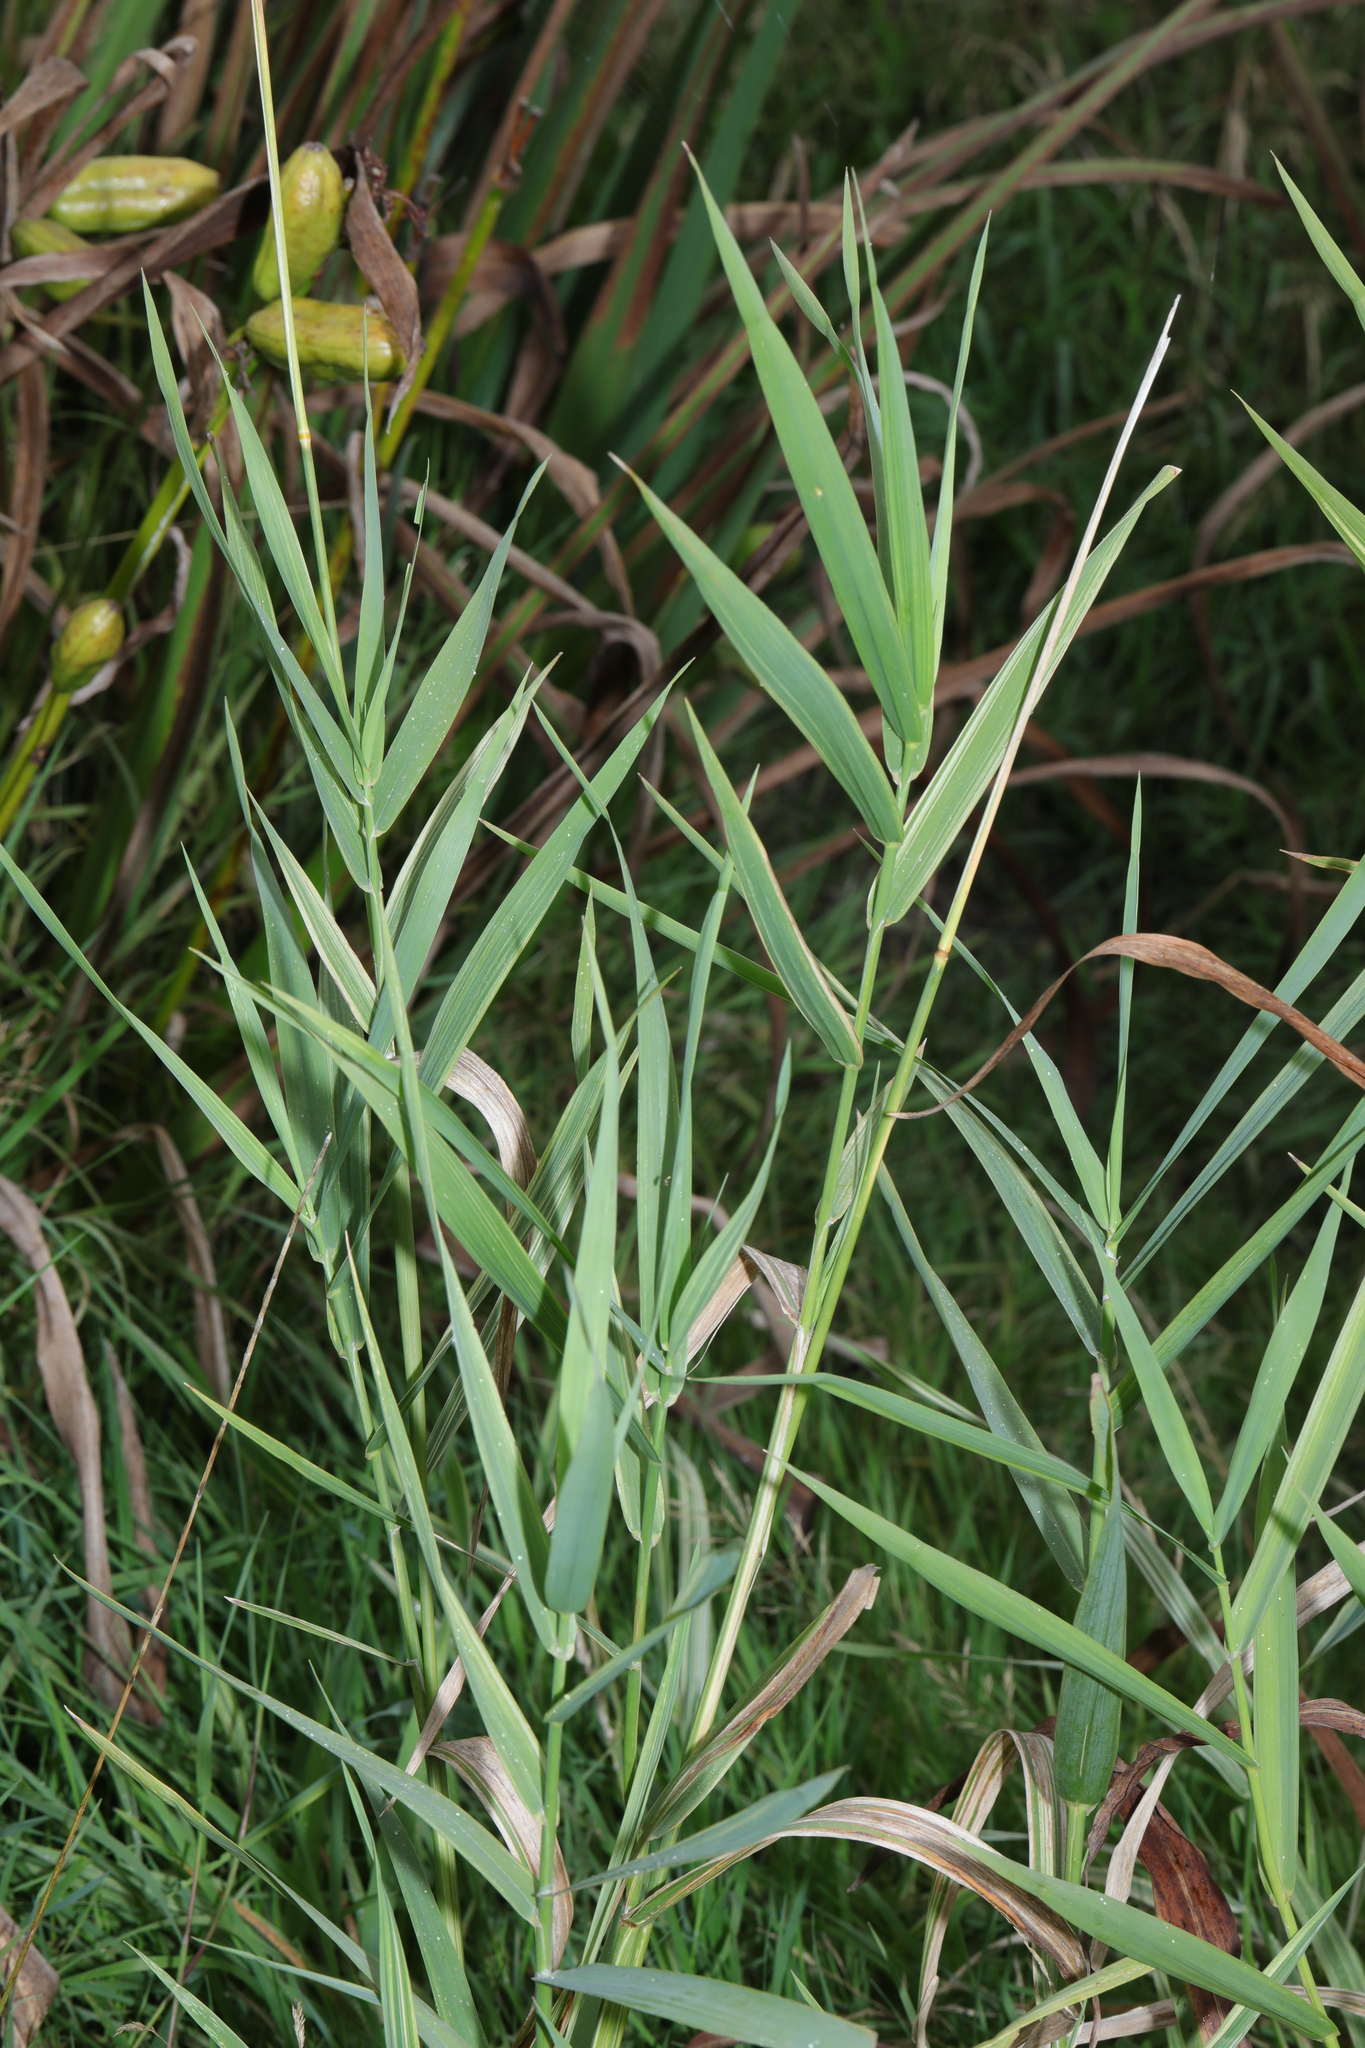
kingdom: Plantae
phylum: Tracheophyta
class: Liliopsida
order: Poales
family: Poaceae
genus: Phragmites
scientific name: Phragmites australis
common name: Common reed
